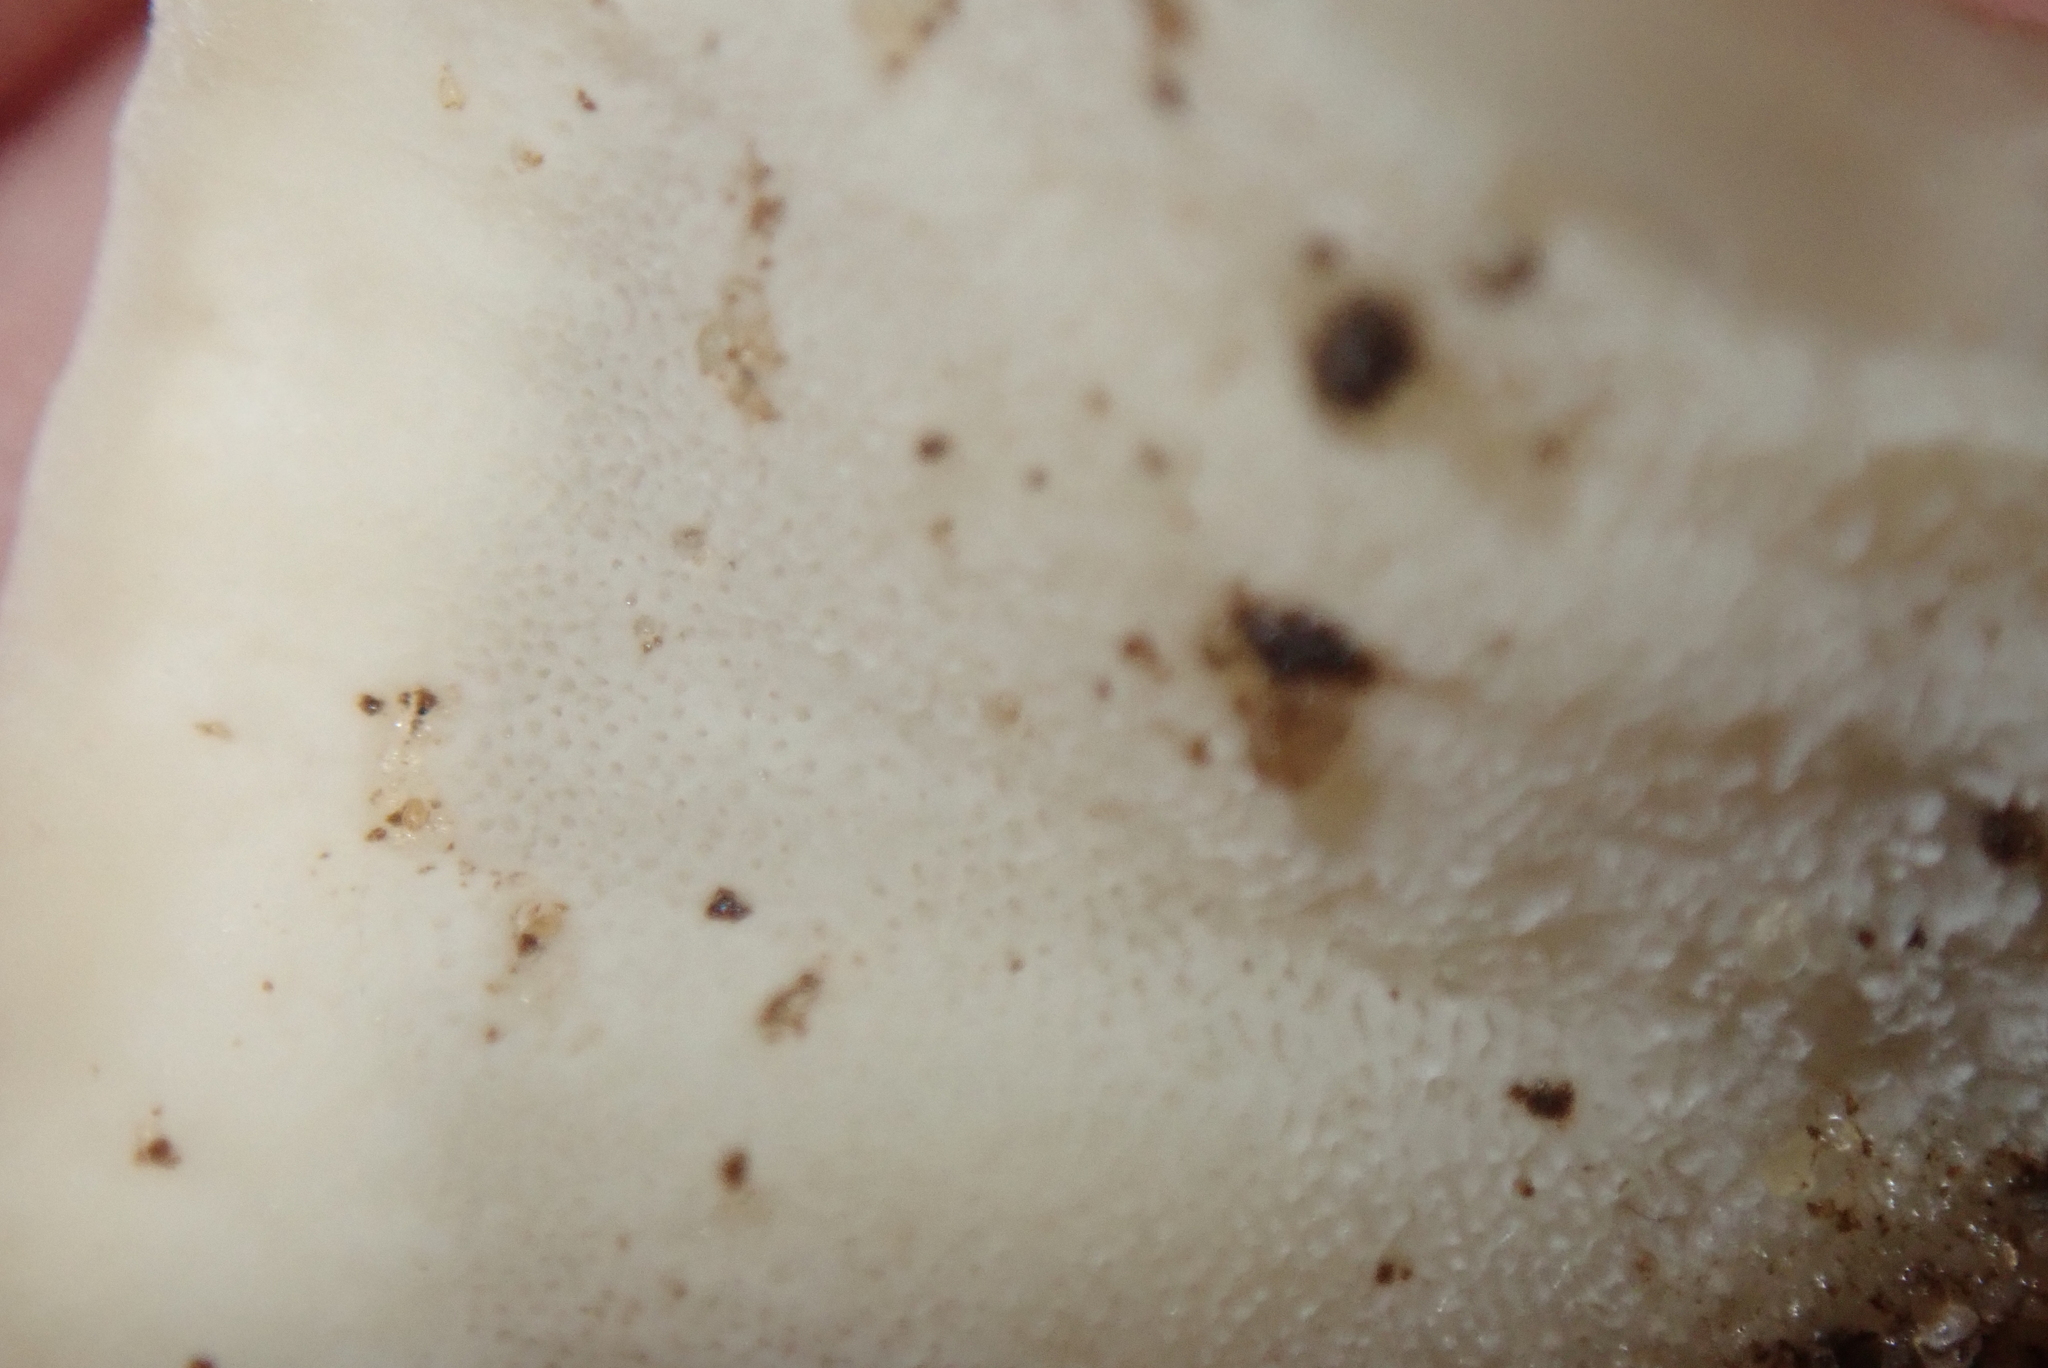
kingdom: Fungi
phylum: Basidiomycota
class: Agaricomycetes
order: Polyporales
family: Grifolaceae
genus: Grifola
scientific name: Grifola frondosa
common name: Hen of the woods
